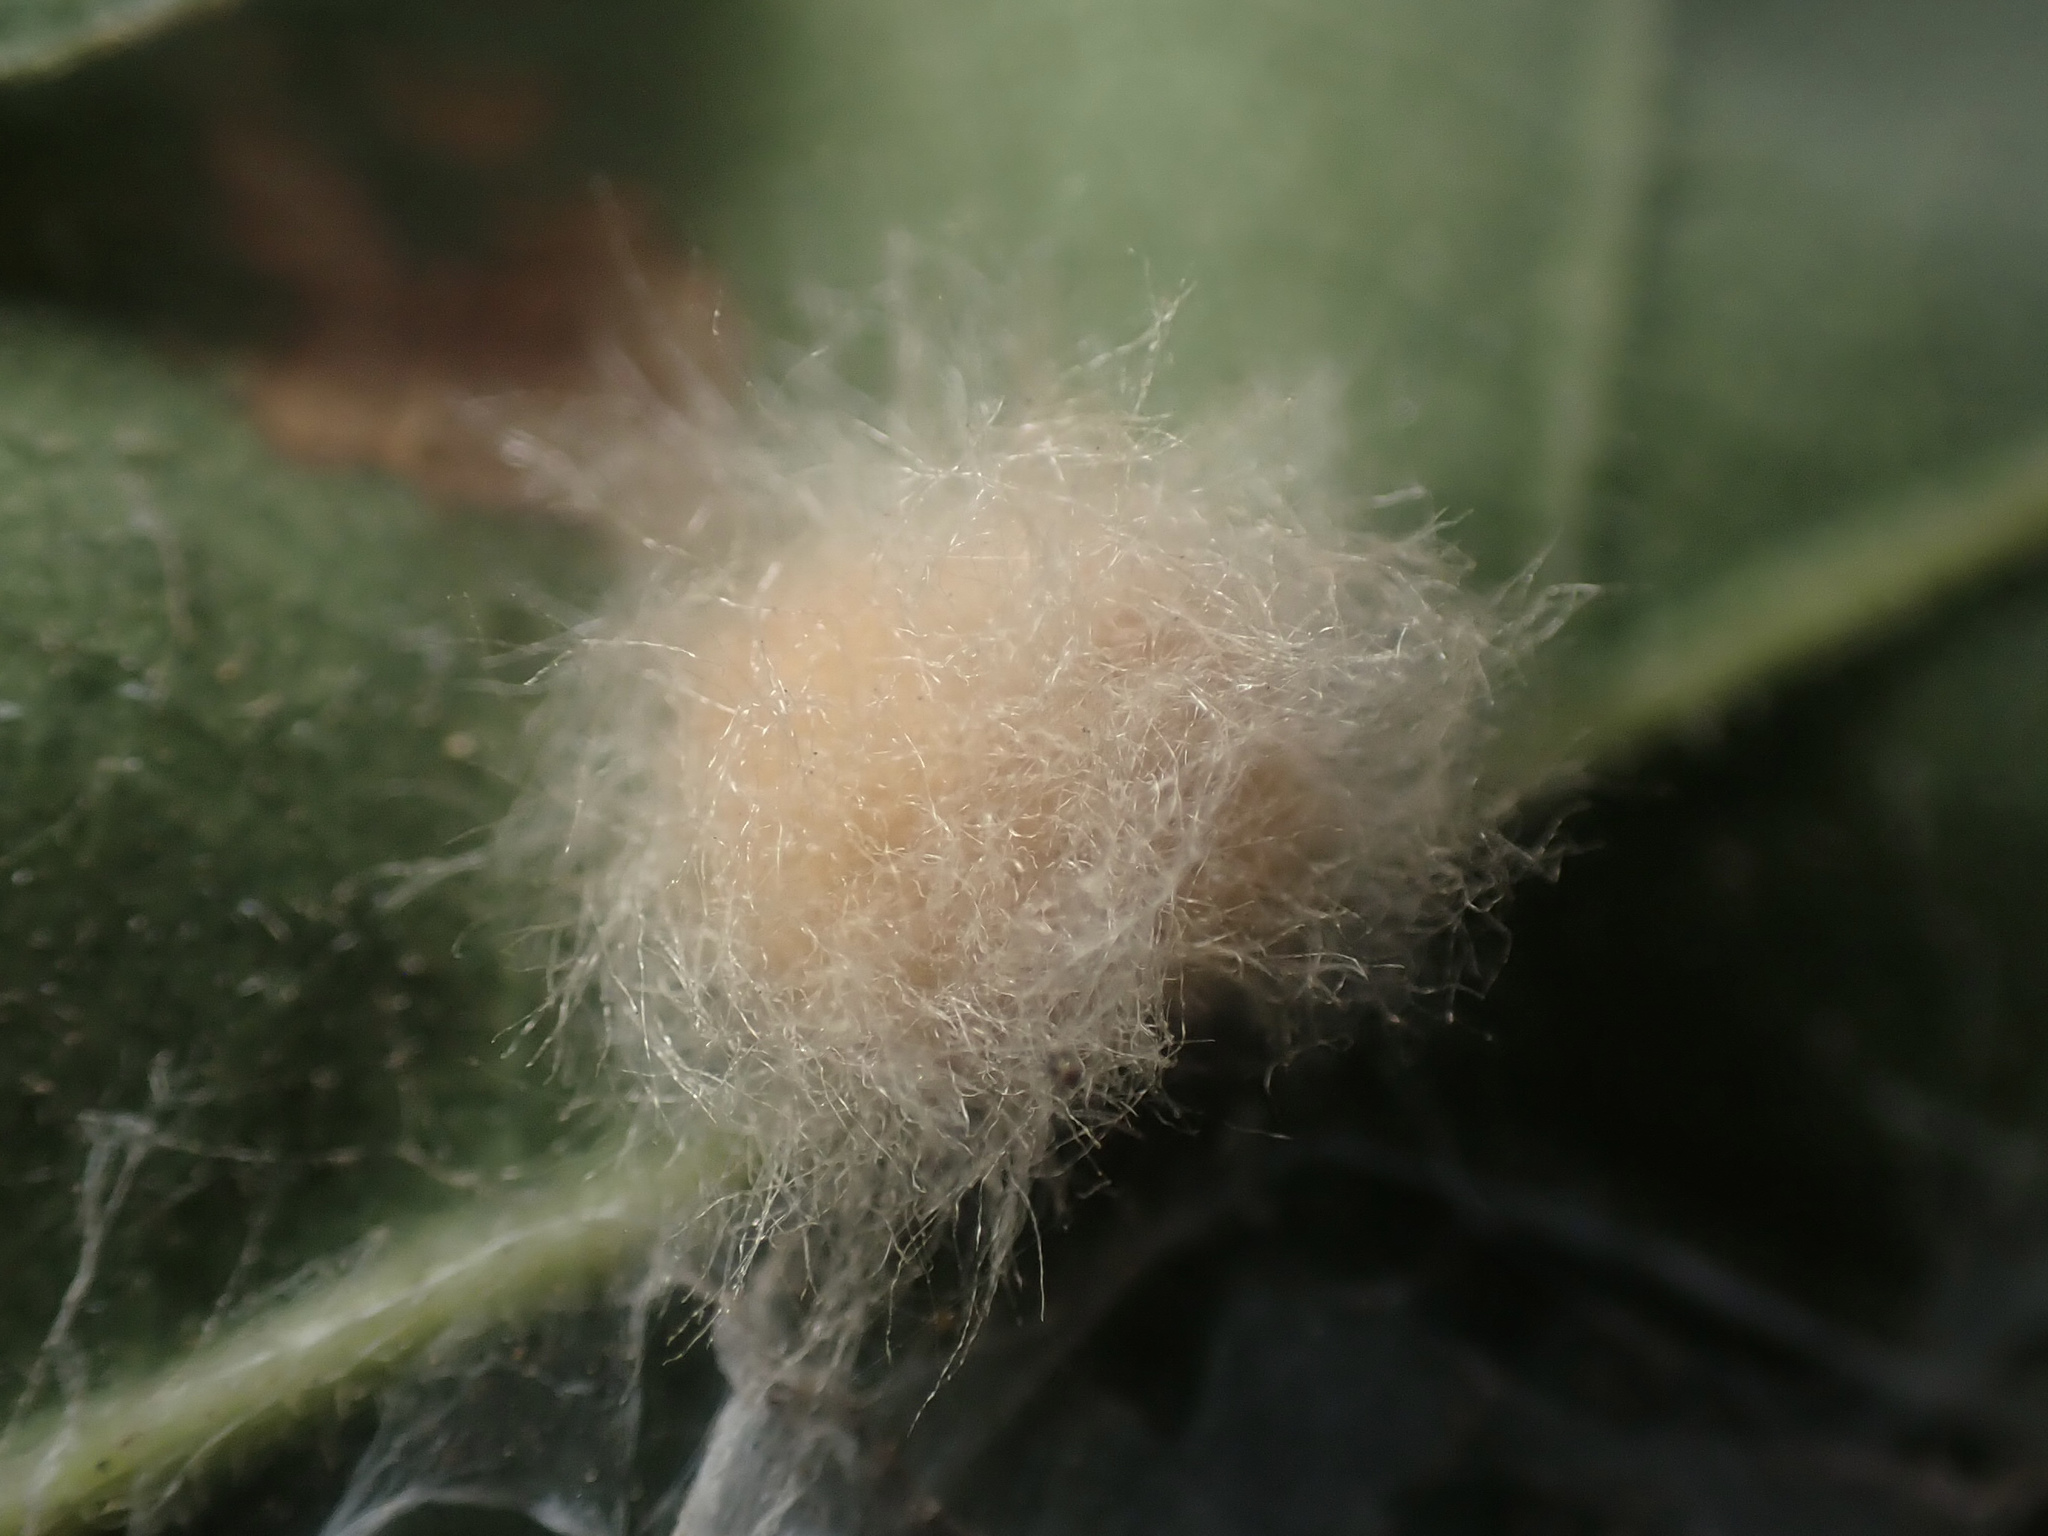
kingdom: Animalia
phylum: Arthropoda
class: Insecta
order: Hymenoptera
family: Cynipidae
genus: Andricus
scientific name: Andricus Druon fullawayi
